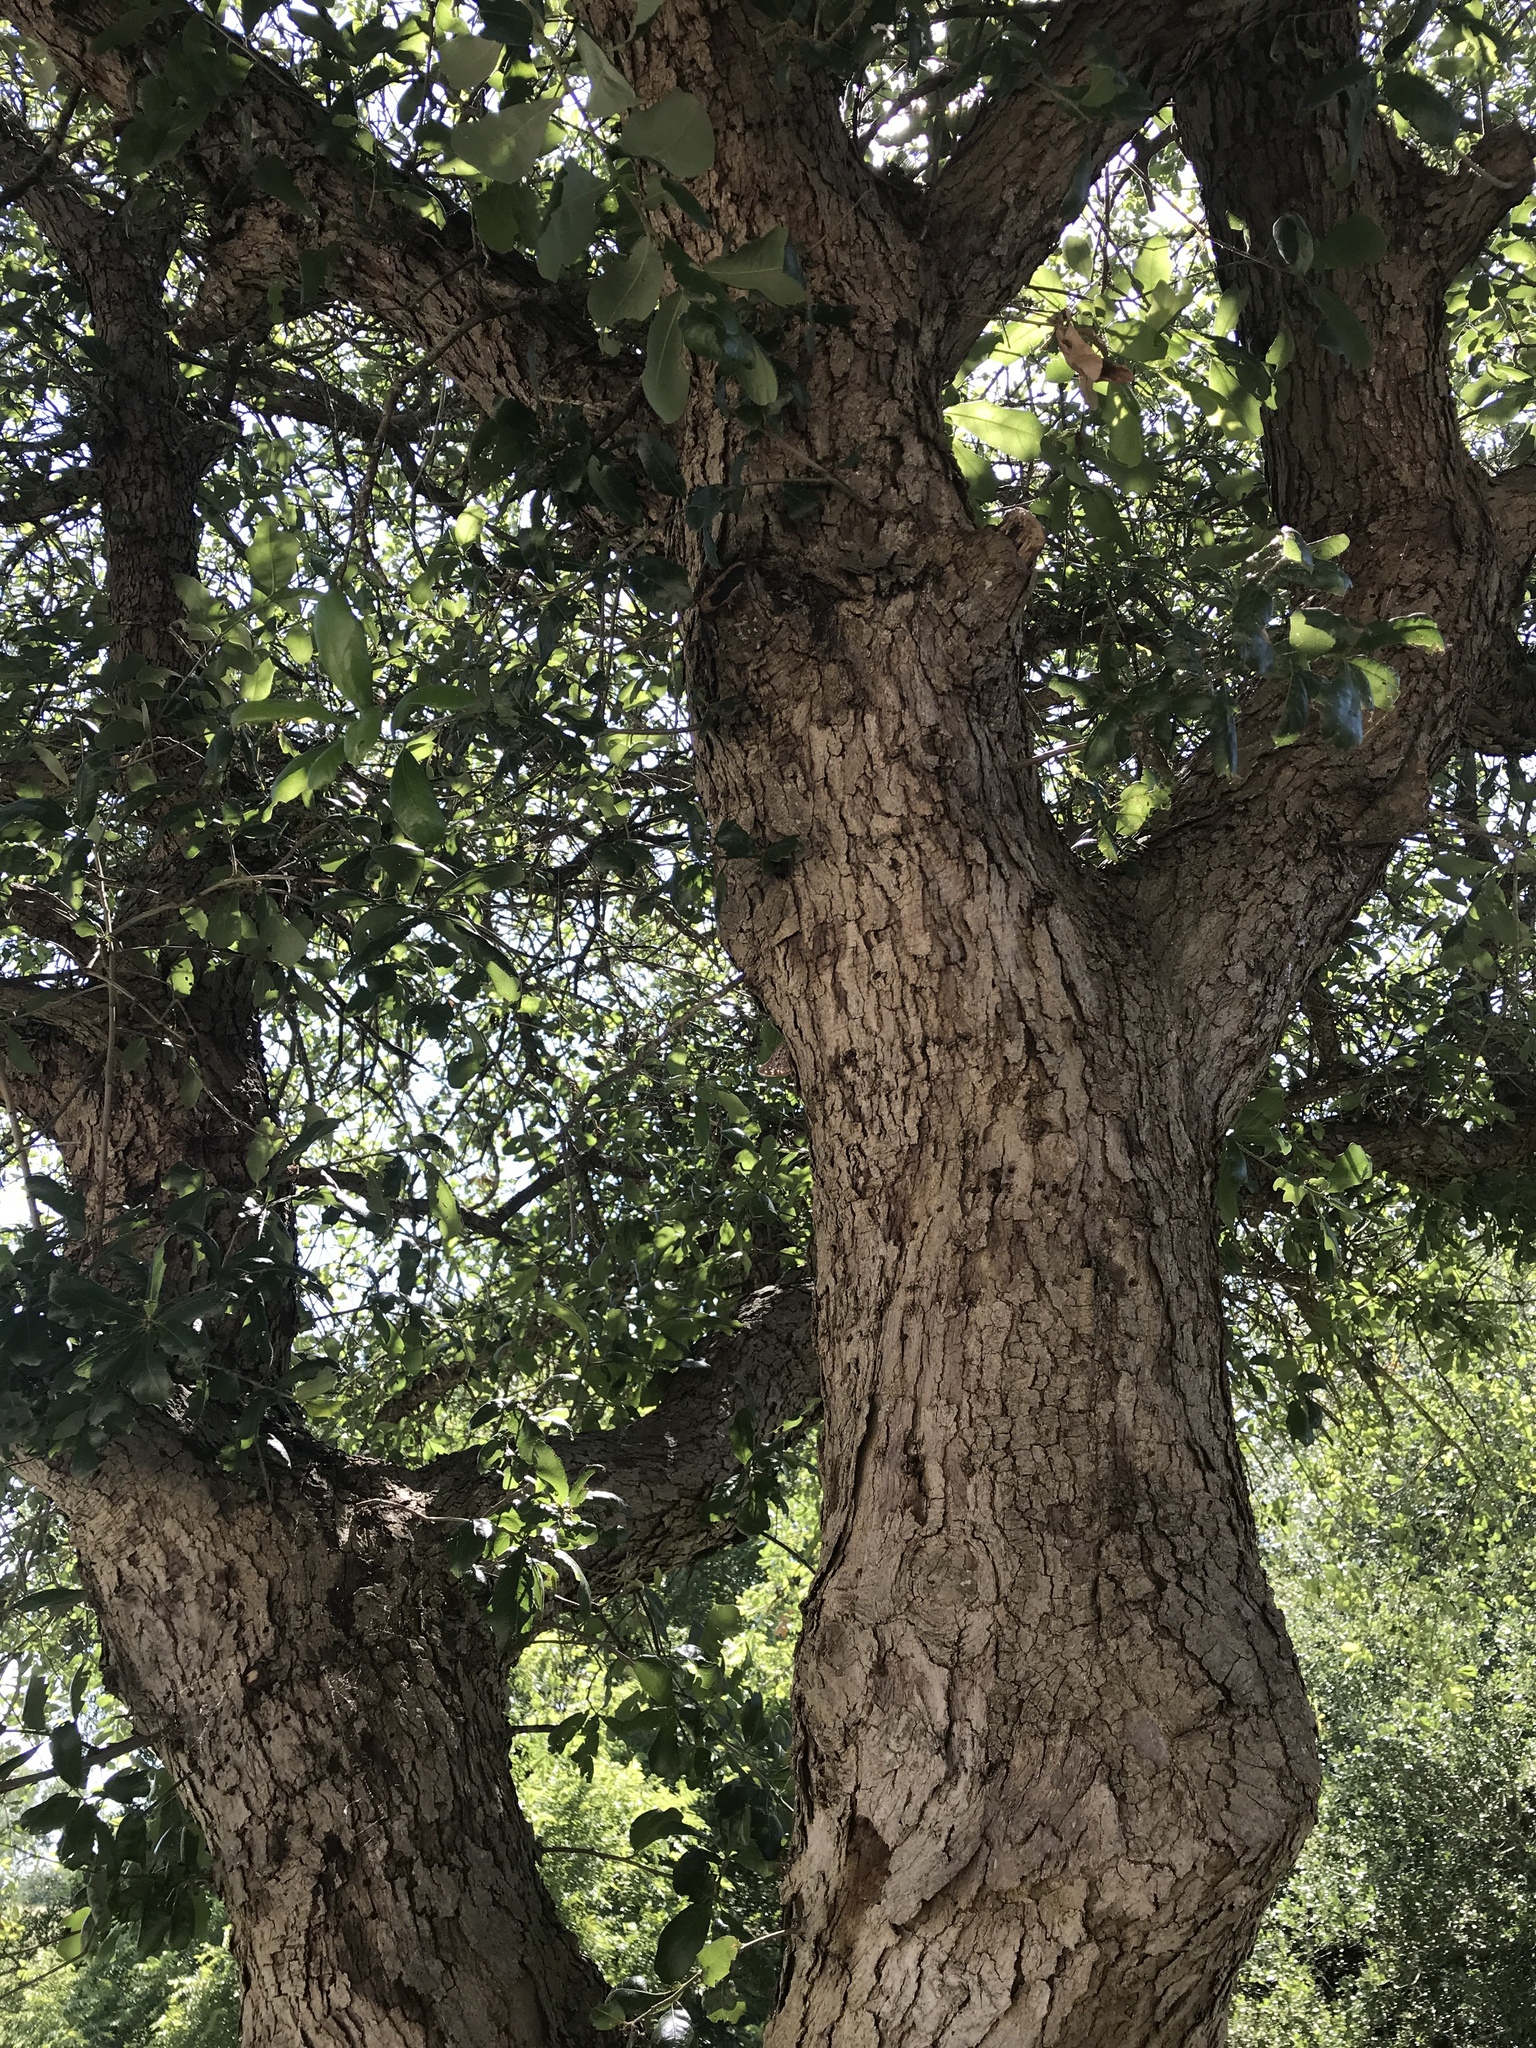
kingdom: Plantae
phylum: Tracheophyta
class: Magnoliopsida
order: Fagales
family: Fagaceae
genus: Quercus
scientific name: Quercus sinuata
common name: Durand oak
